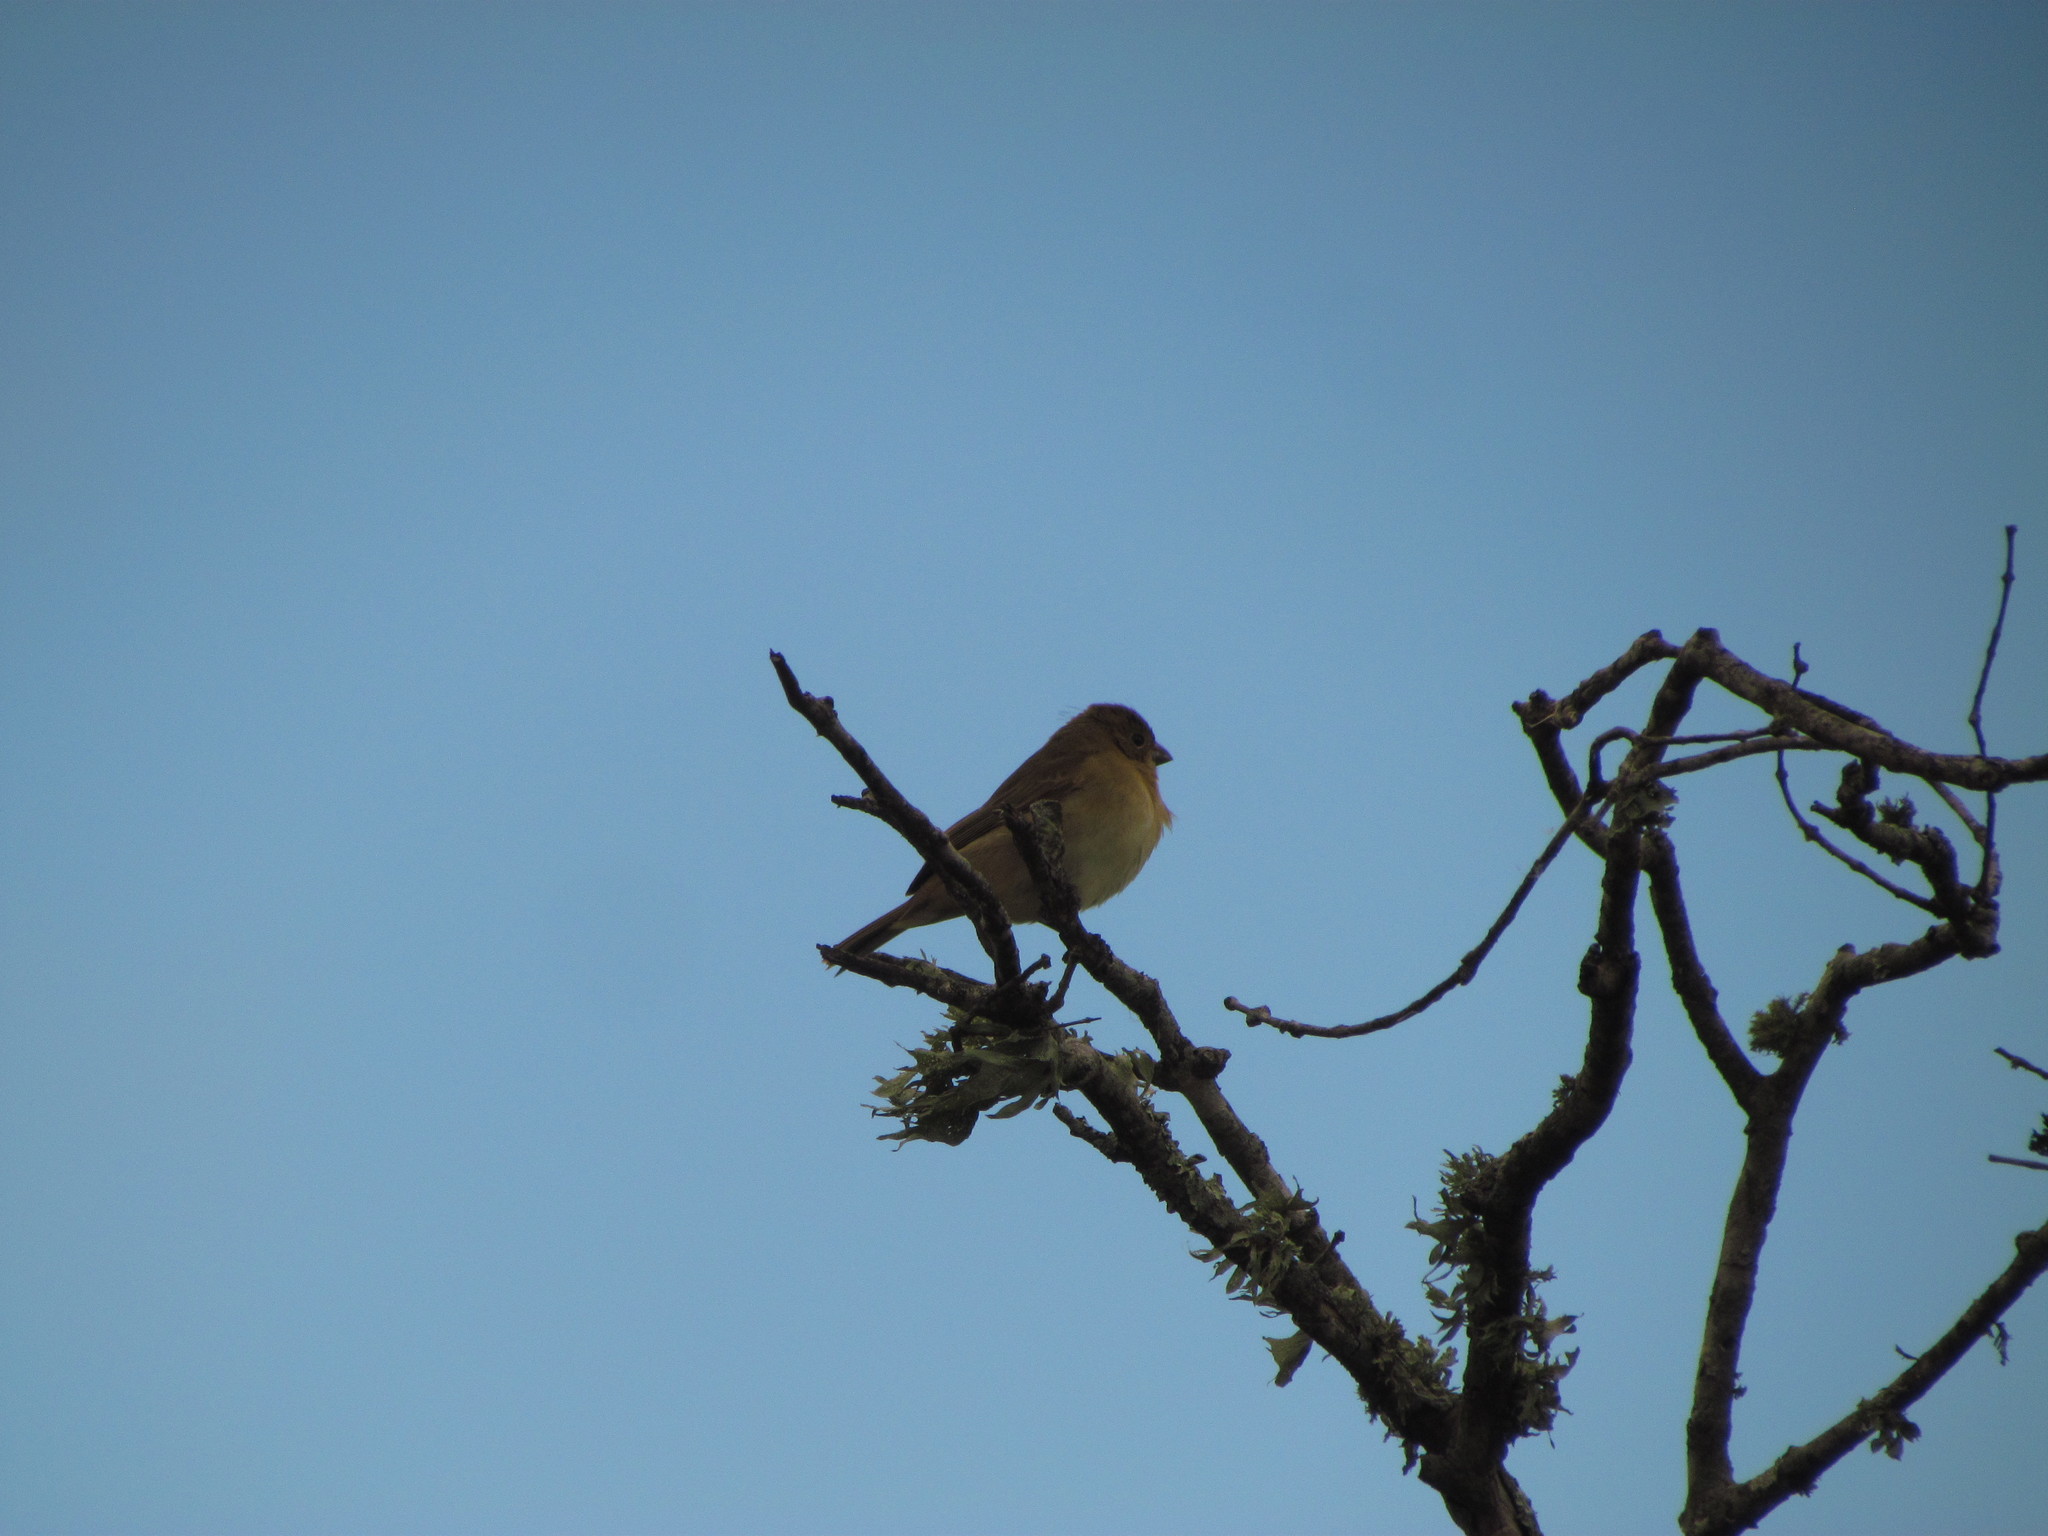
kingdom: Animalia
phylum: Chordata
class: Aves
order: Passeriformes
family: Thraupidae
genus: Sporophila
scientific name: Sporophila caerulescens
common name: Double-collared seedeater
